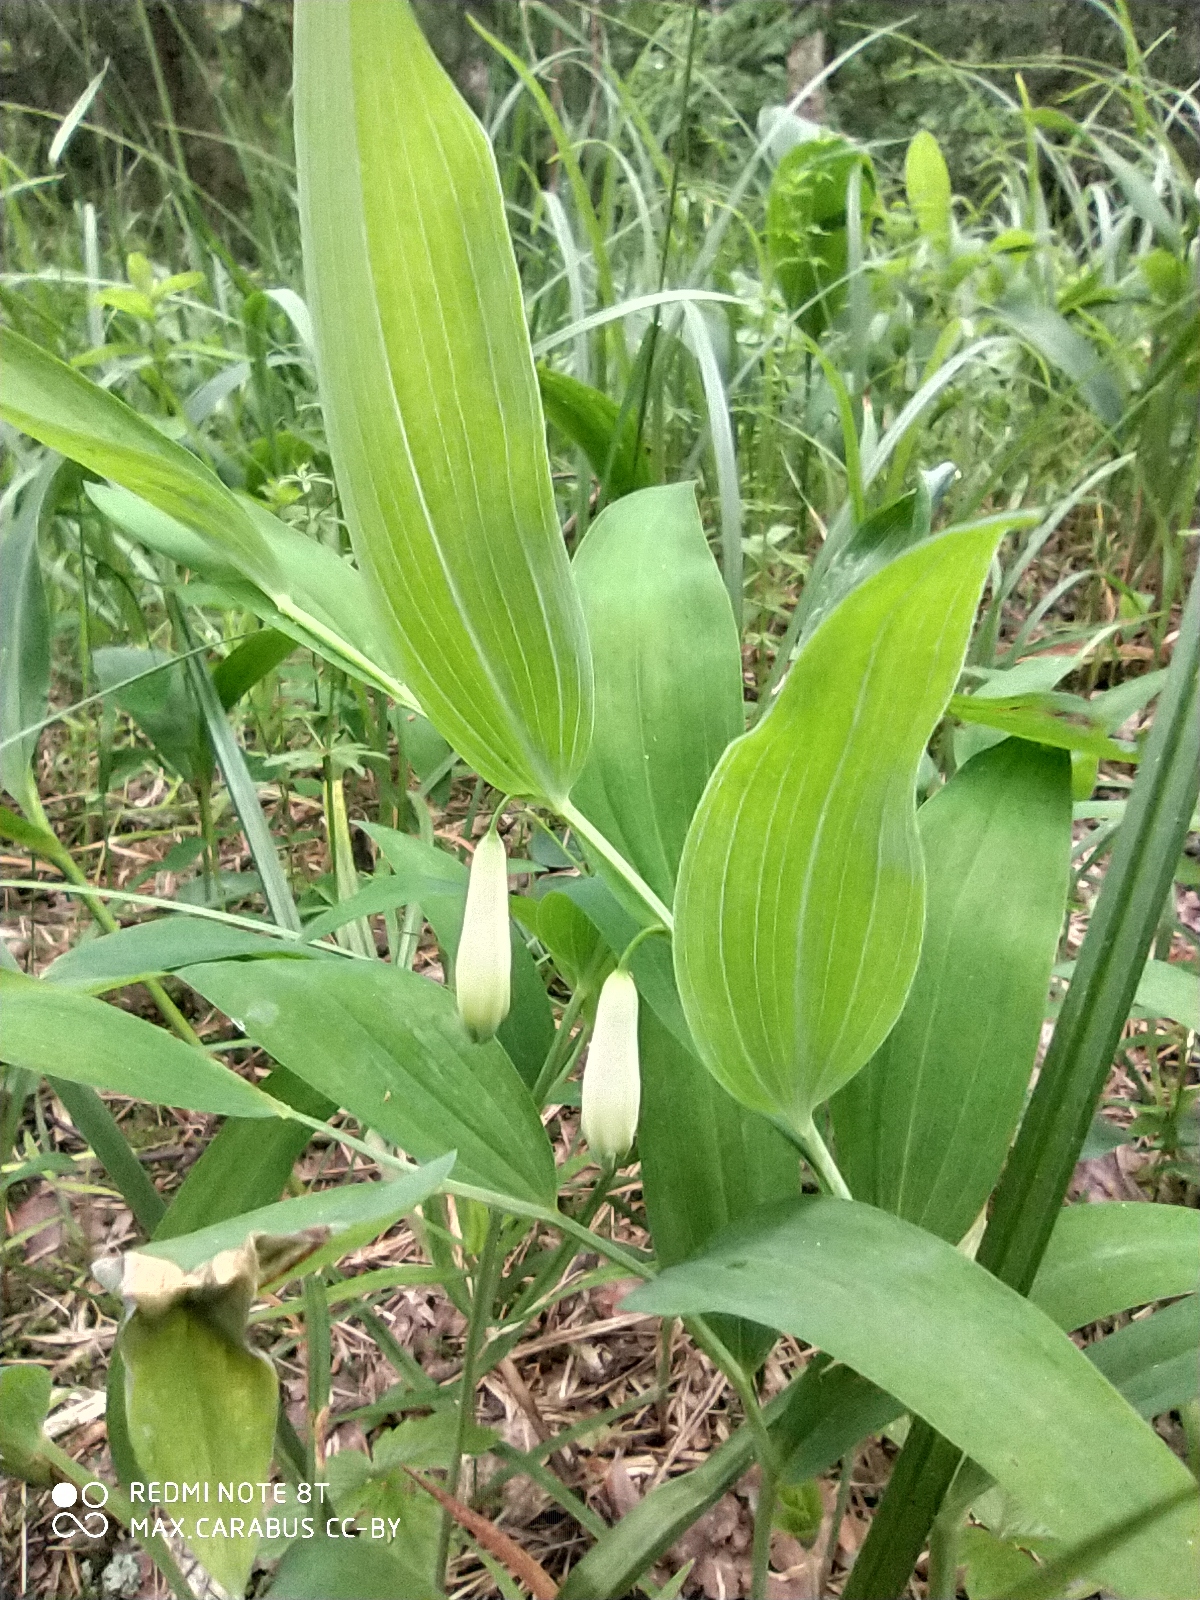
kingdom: Plantae
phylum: Tracheophyta
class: Liliopsida
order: Asparagales
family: Asparagaceae
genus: Polygonatum
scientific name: Polygonatum odoratum
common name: Angular solomon's-seal
